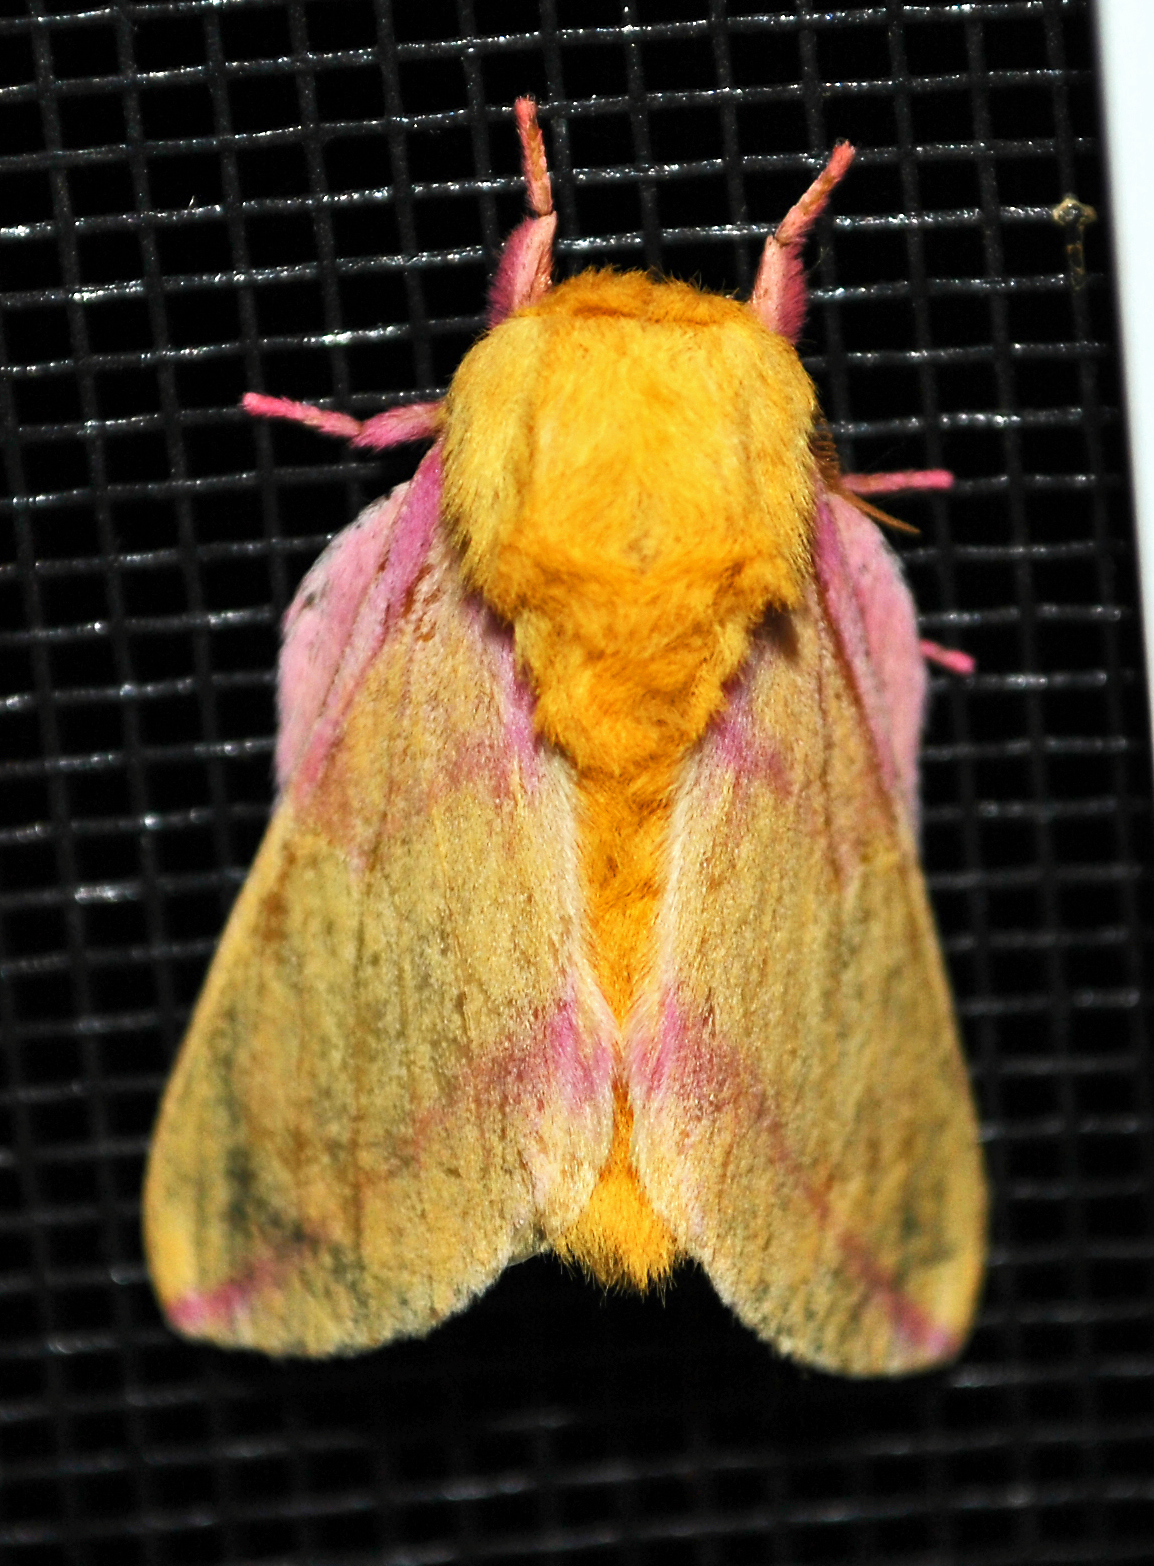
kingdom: Animalia
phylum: Arthropoda
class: Insecta
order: Lepidoptera
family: Saturniidae
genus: Dryocampa
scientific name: Dryocampa rubicunda
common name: Rosy maple moth
